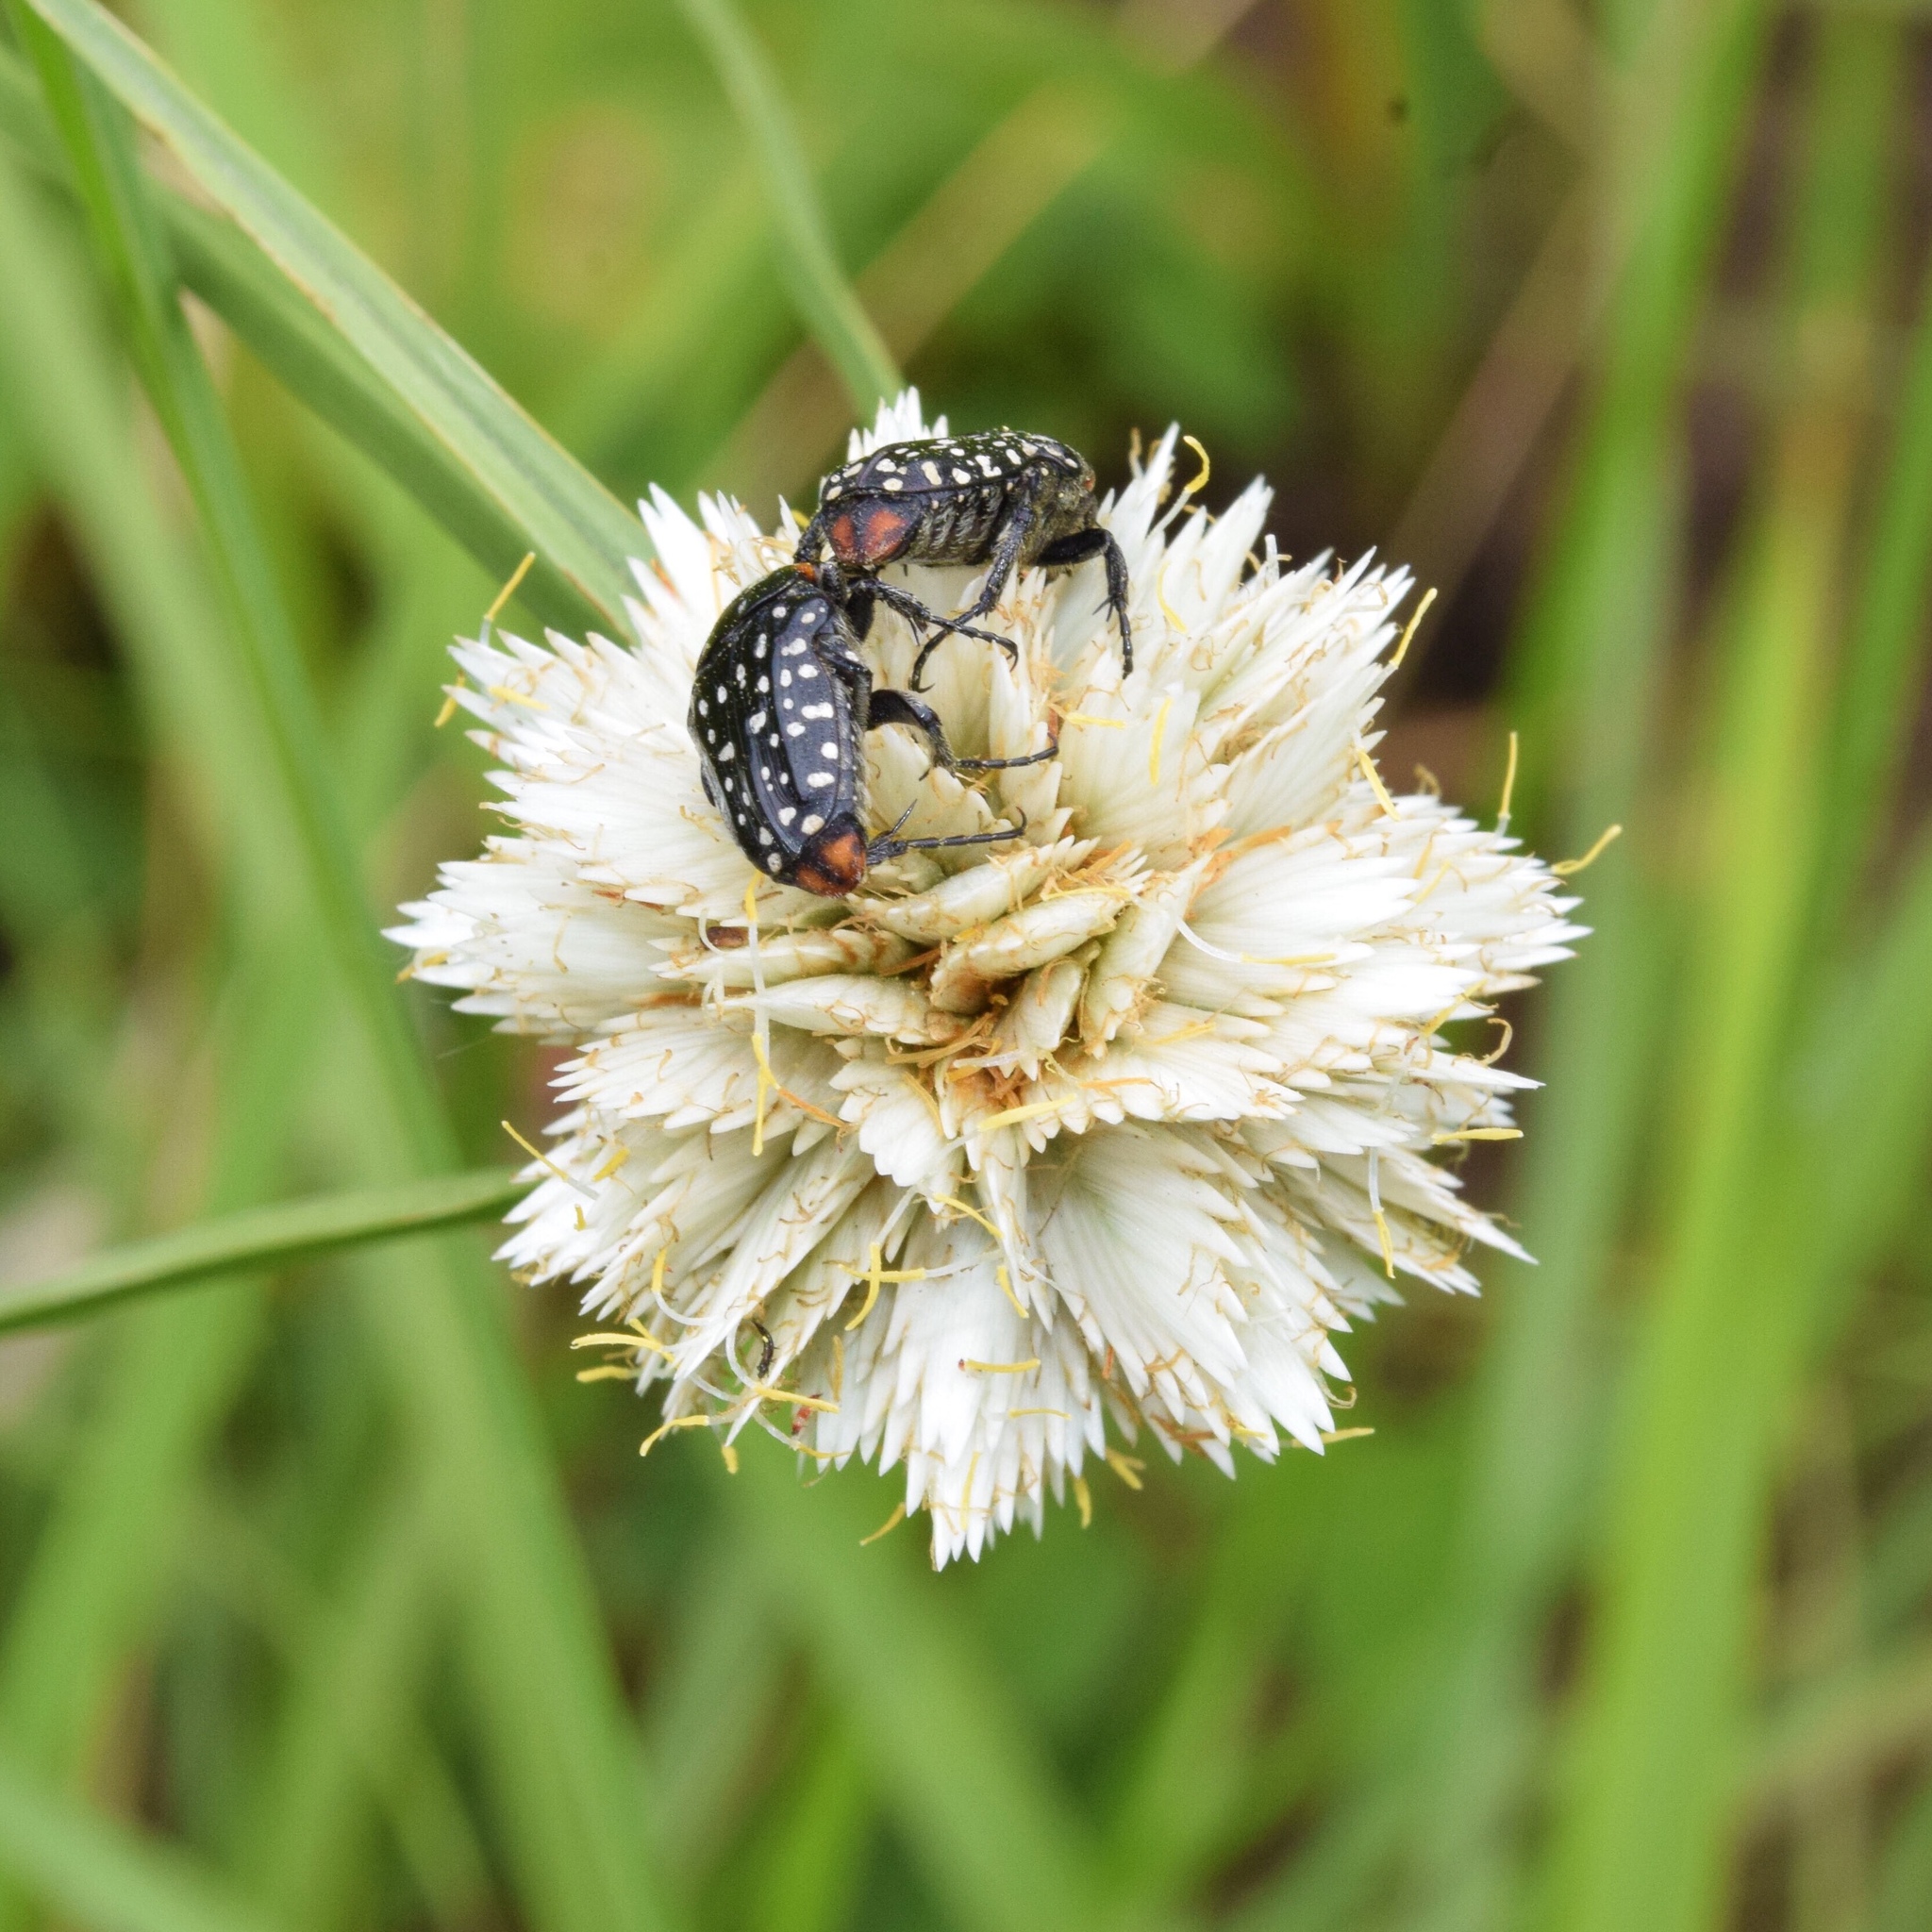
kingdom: Plantae
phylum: Tracheophyta
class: Liliopsida
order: Poales
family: Cyperaceae
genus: Cyperus
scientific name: Cyperus niveus
